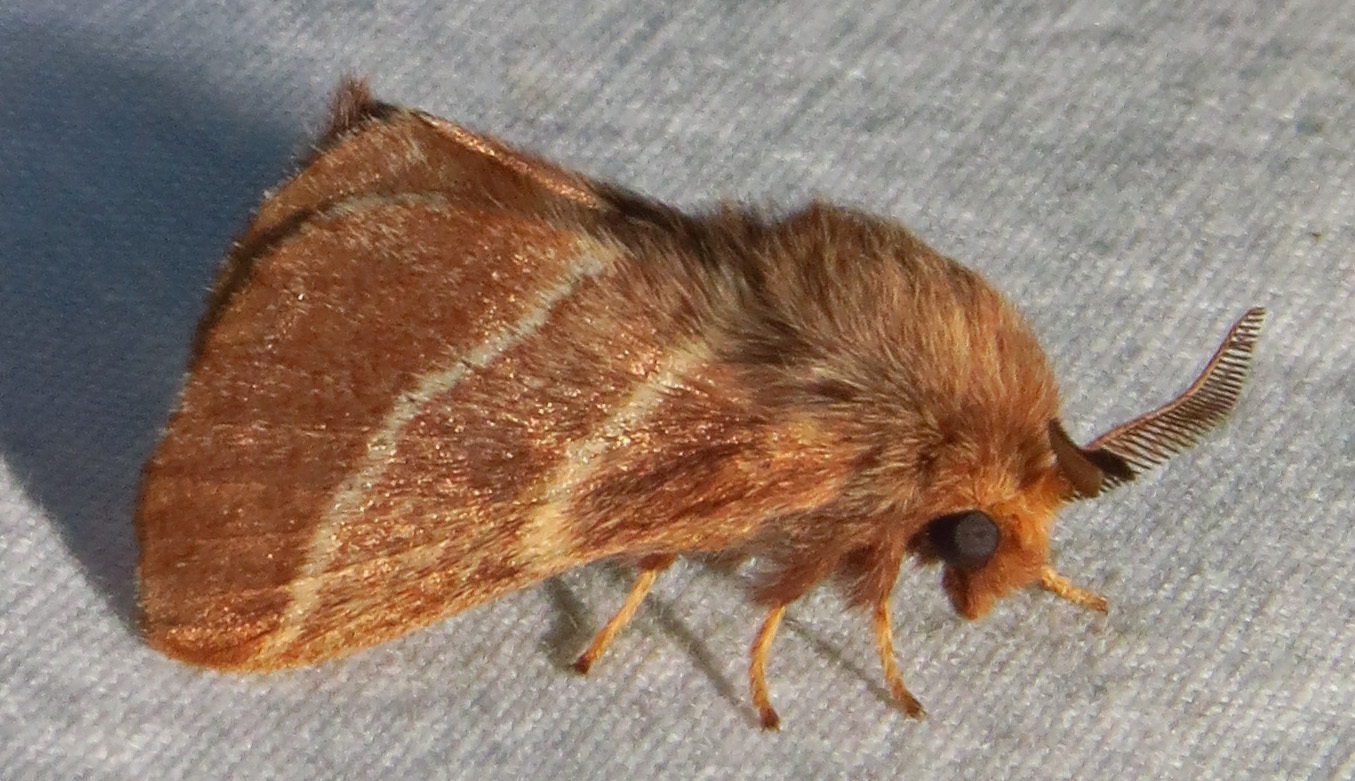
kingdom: Animalia
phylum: Arthropoda
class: Insecta
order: Lepidoptera
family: Lasiocampidae
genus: Malacosoma
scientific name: Malacosoma americana
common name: Eastern tent caterpillar moth
